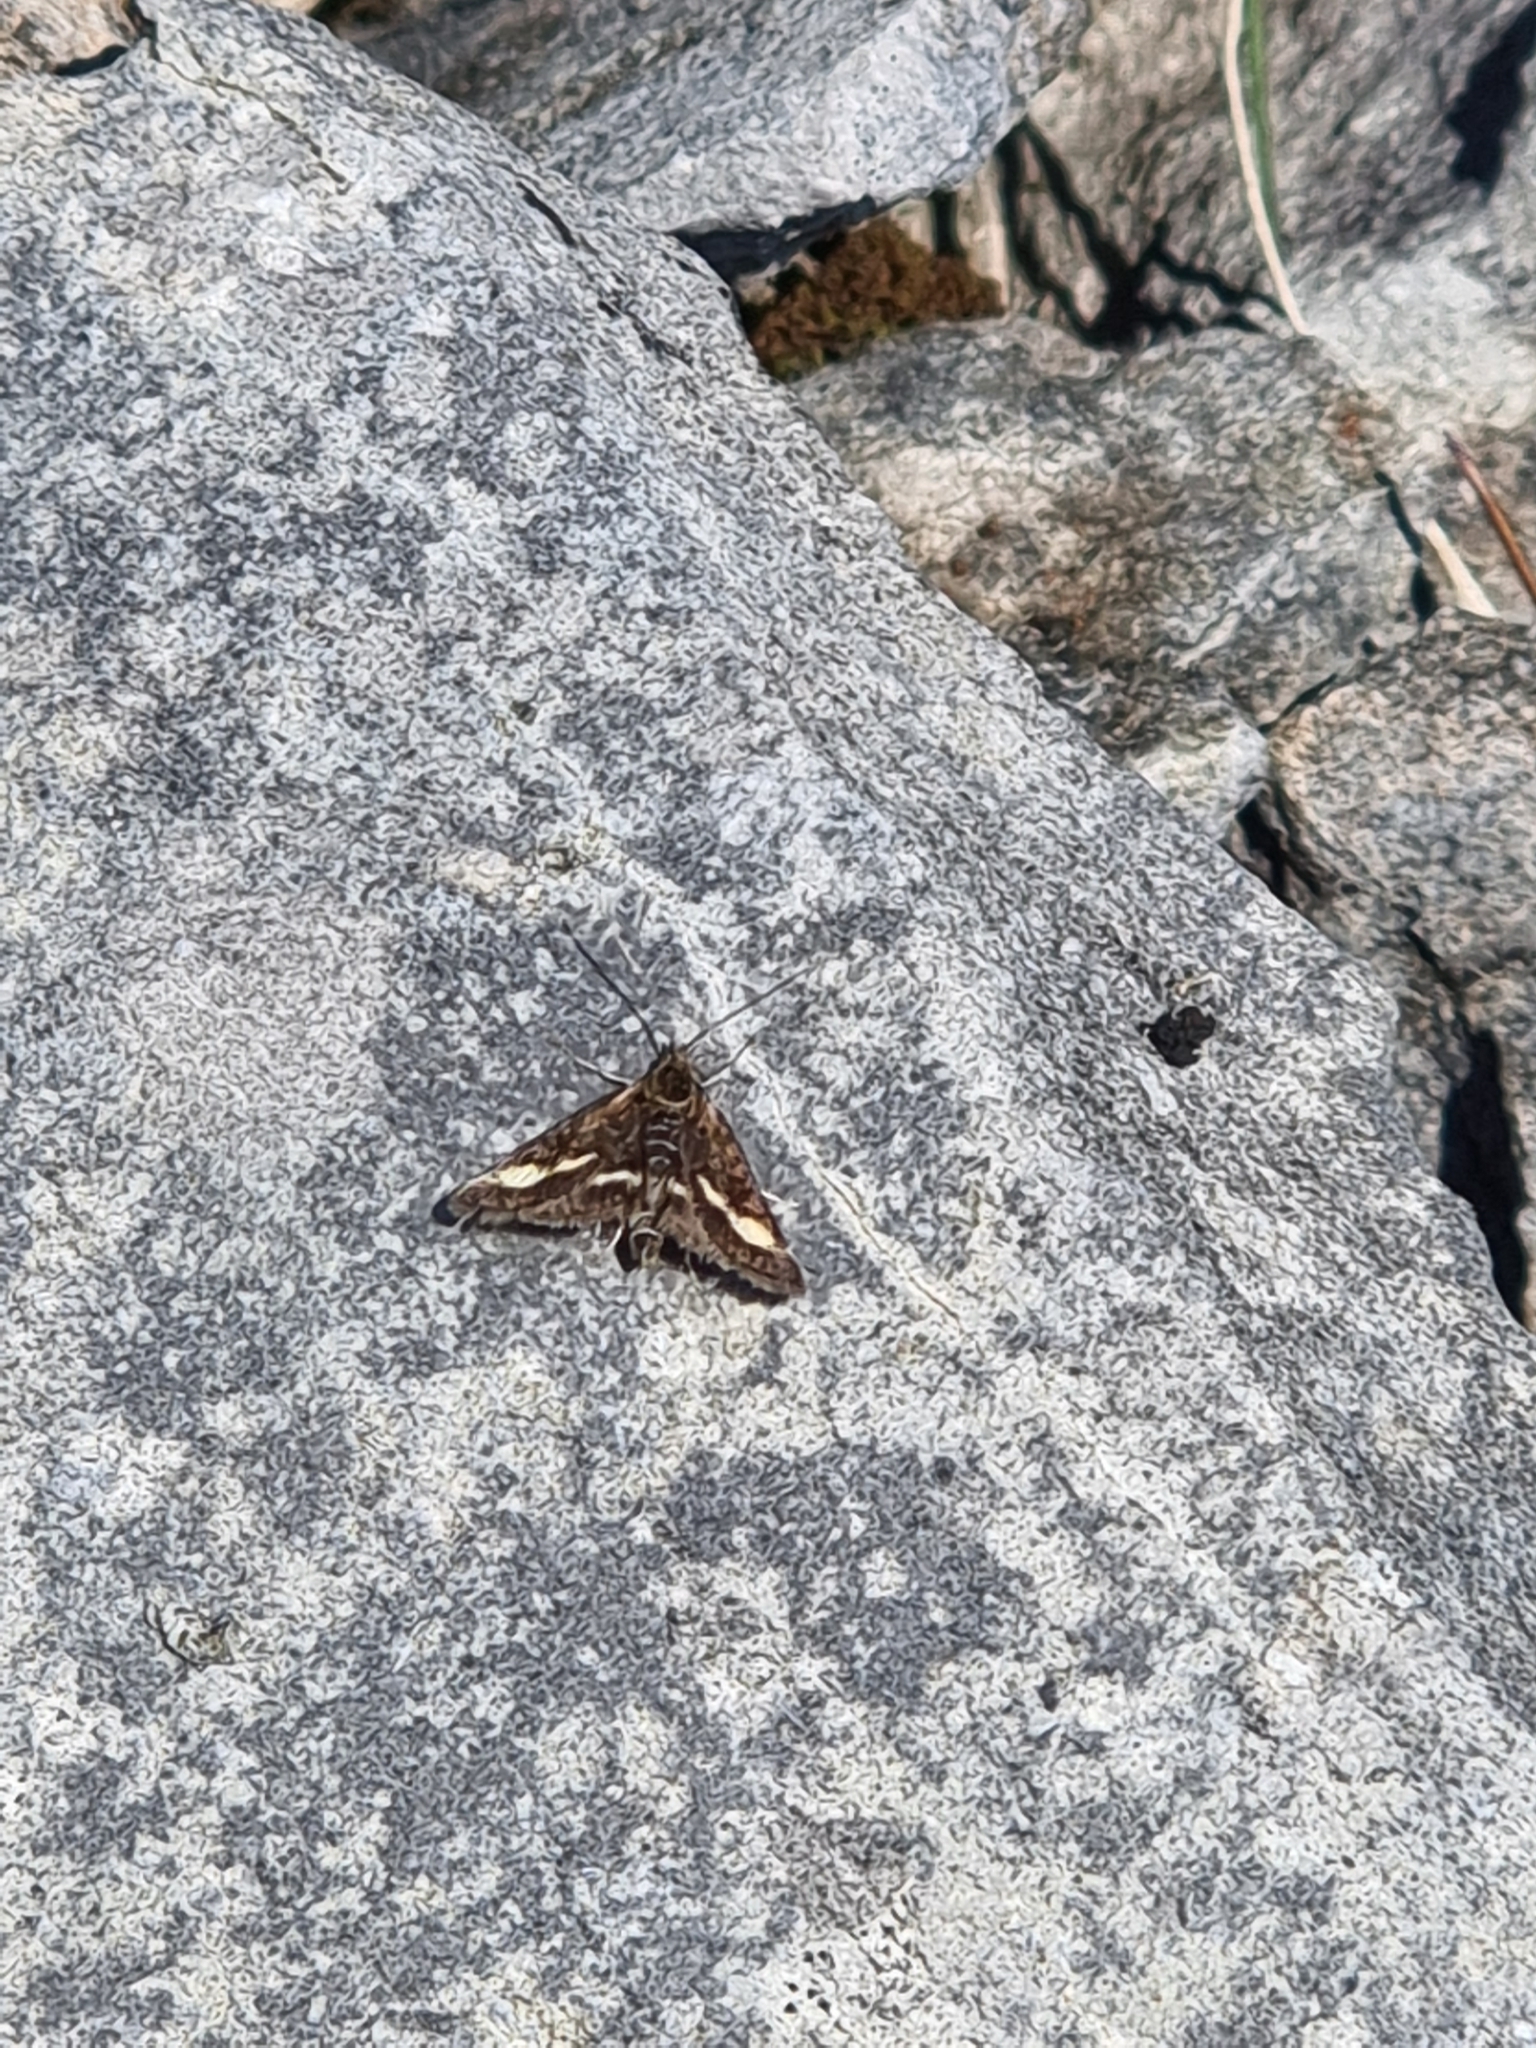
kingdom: Animalia
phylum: Arthropoda
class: Insecta
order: Lepidoptera
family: Crambidae
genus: Pyrausta
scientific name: Pyrausta aurata
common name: Small purple & gold
